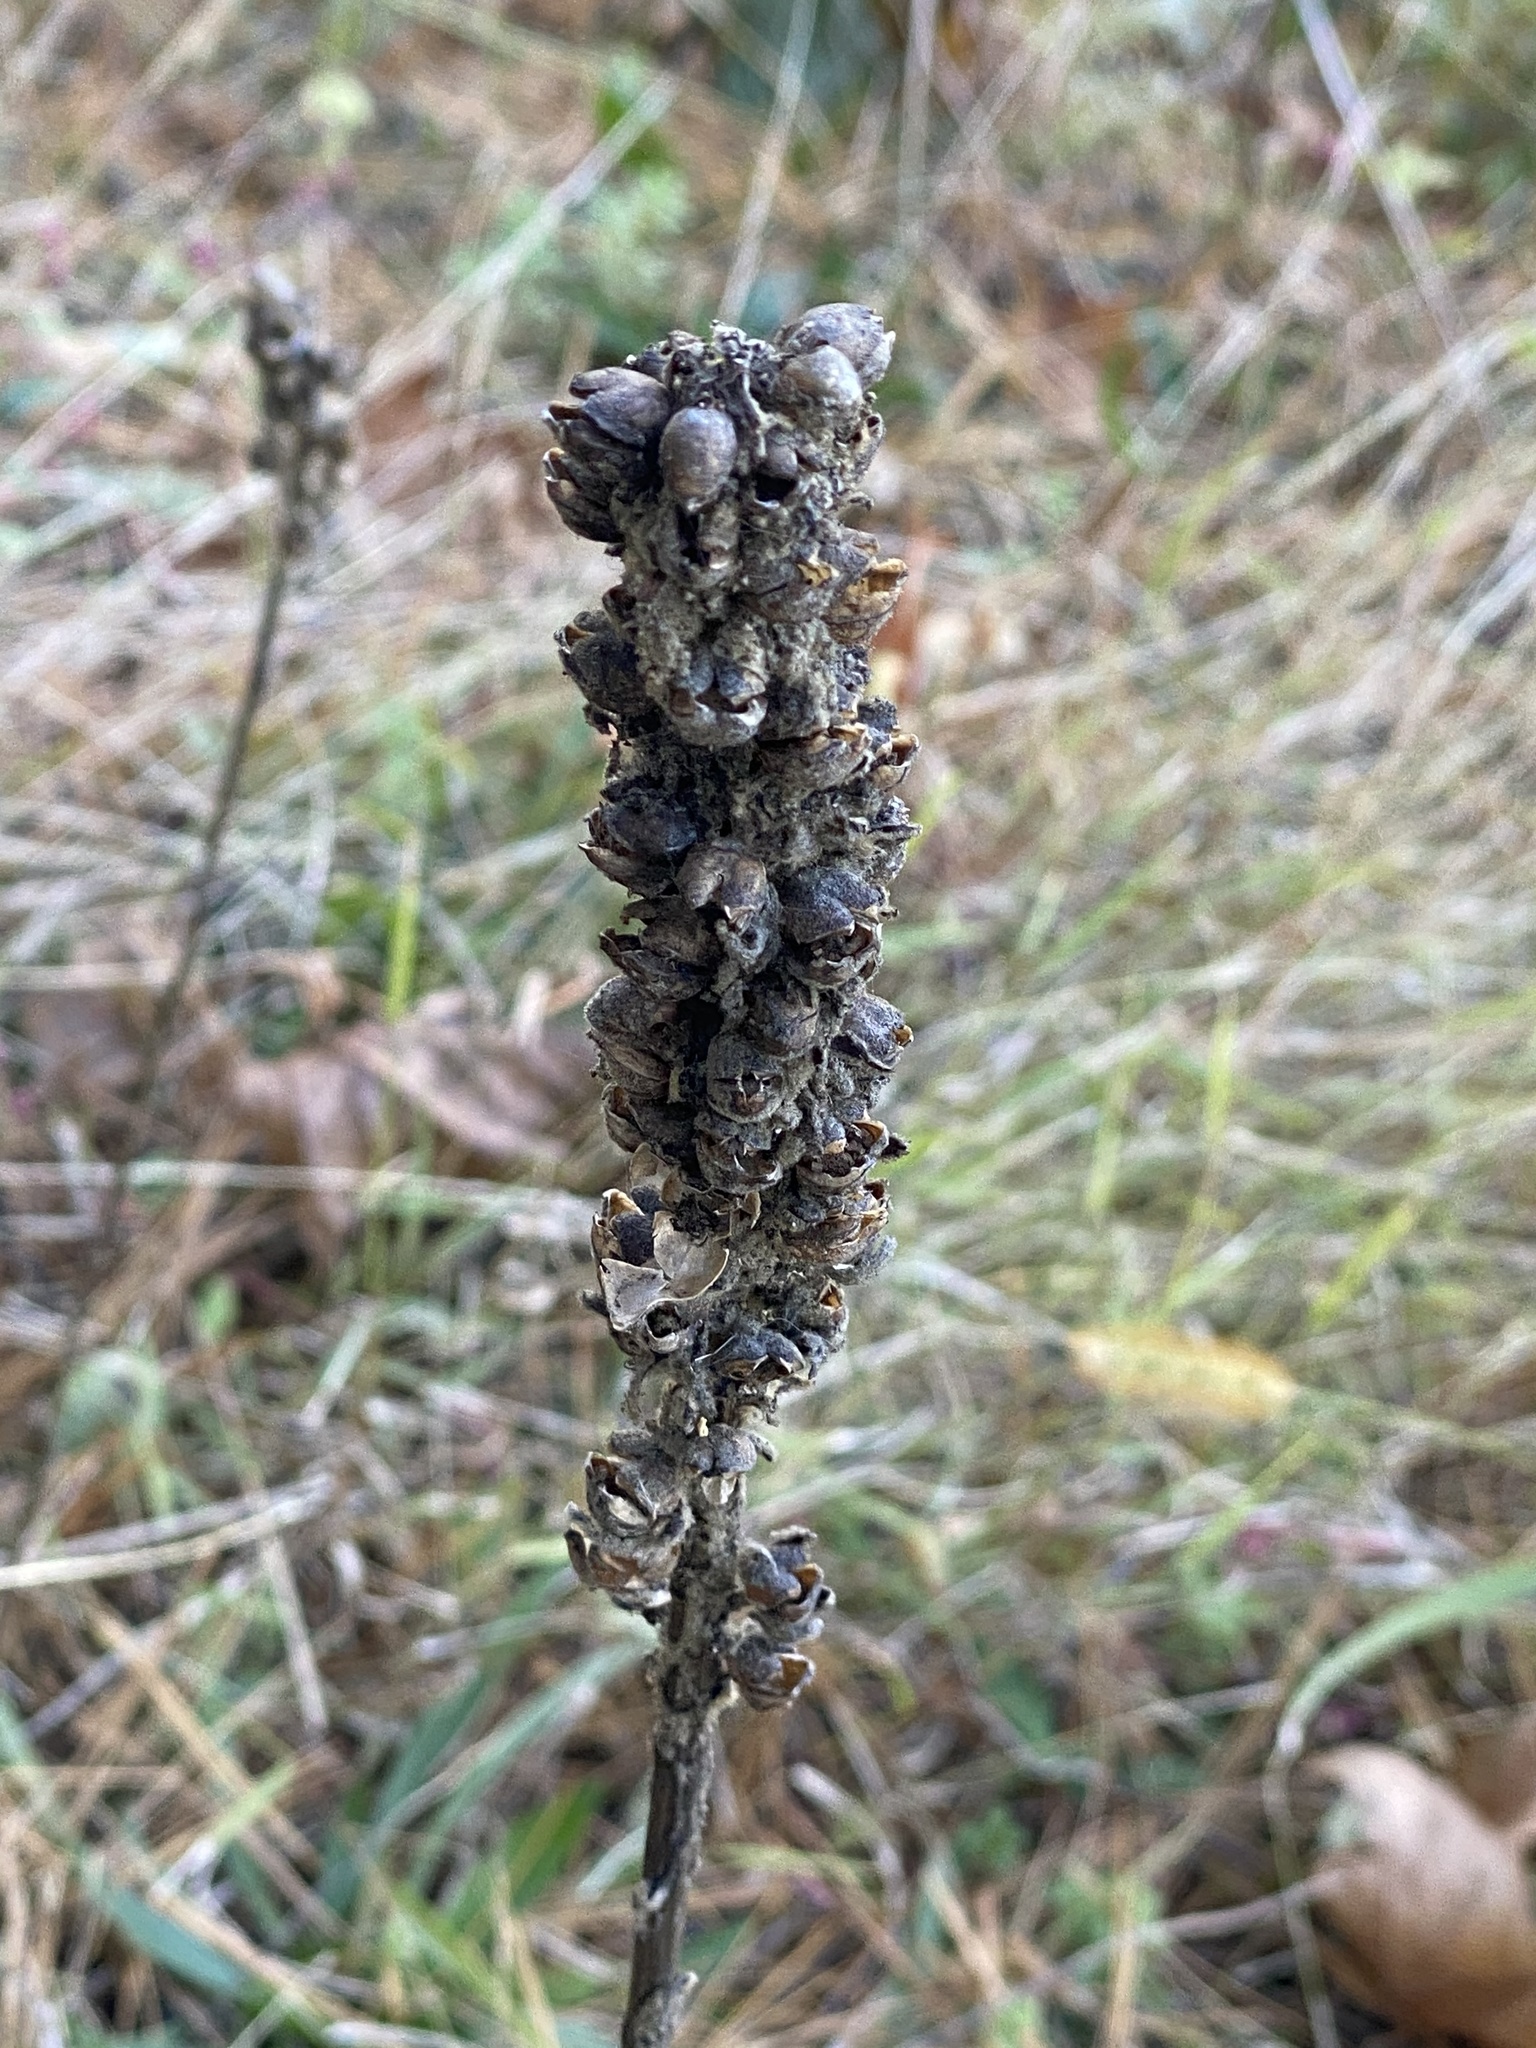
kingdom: Plantae
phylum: Tracheophyta
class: Magnoliopsida
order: Lamiales
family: Scrophulariaceae
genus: Verbascum
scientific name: Verbascum thapsus
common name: Common mullein
